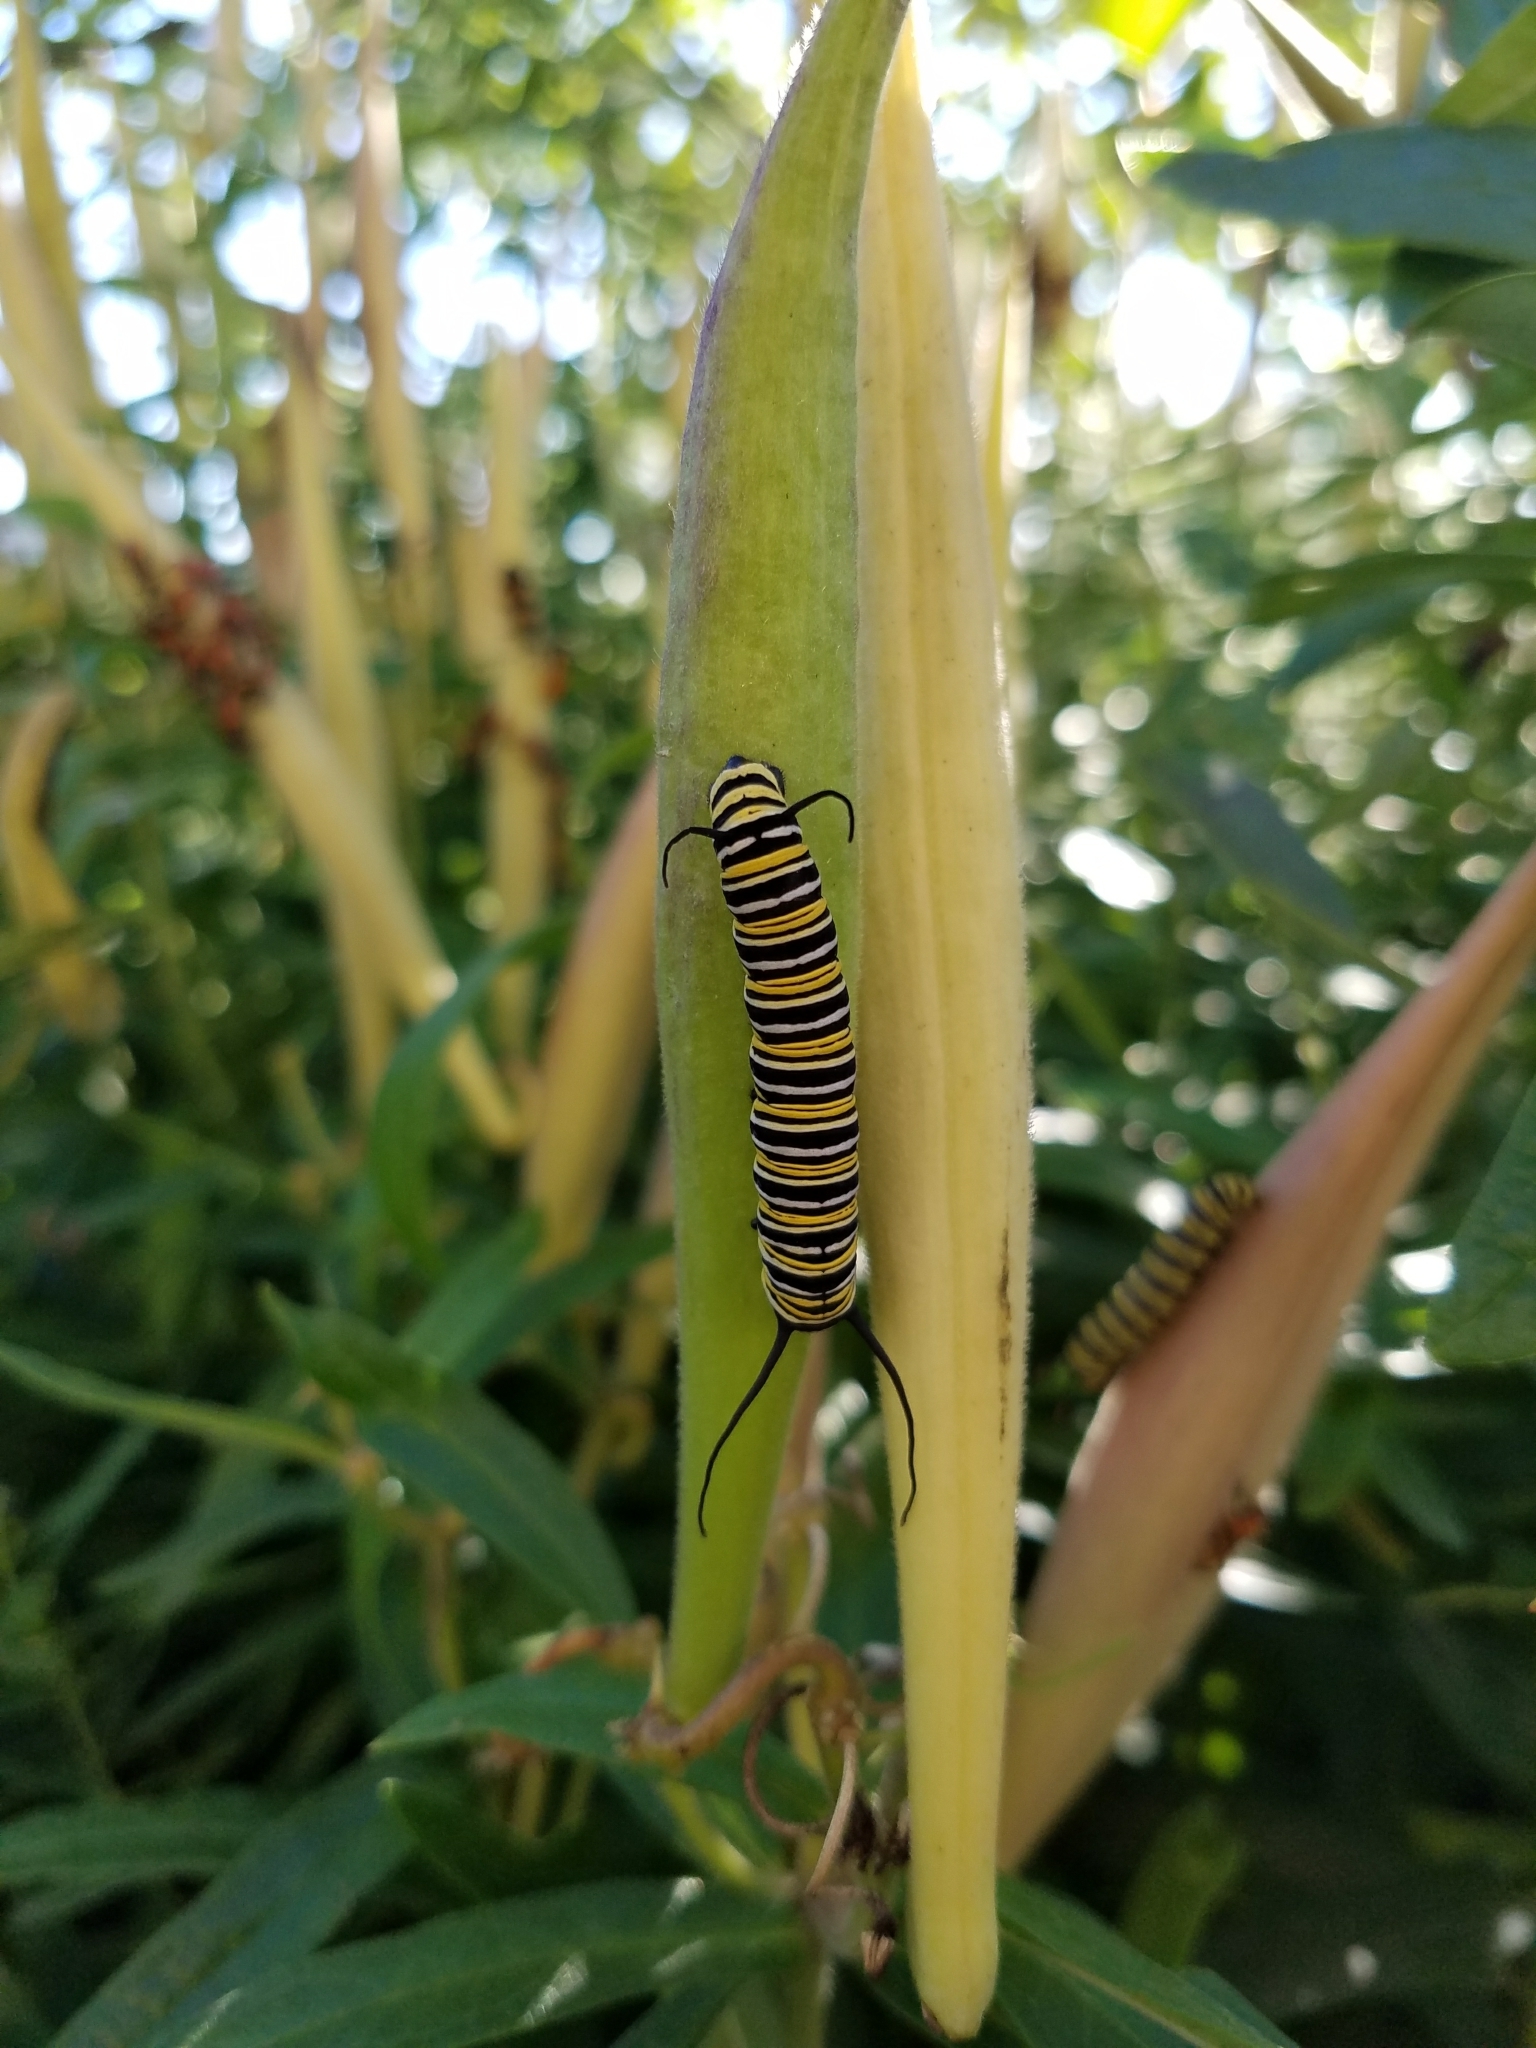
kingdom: Animalia
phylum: Arthropoda
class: Insecta
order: Lepidoptera
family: Nymphalidae
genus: Danaus
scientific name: Danaus plexippus
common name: Monarch
